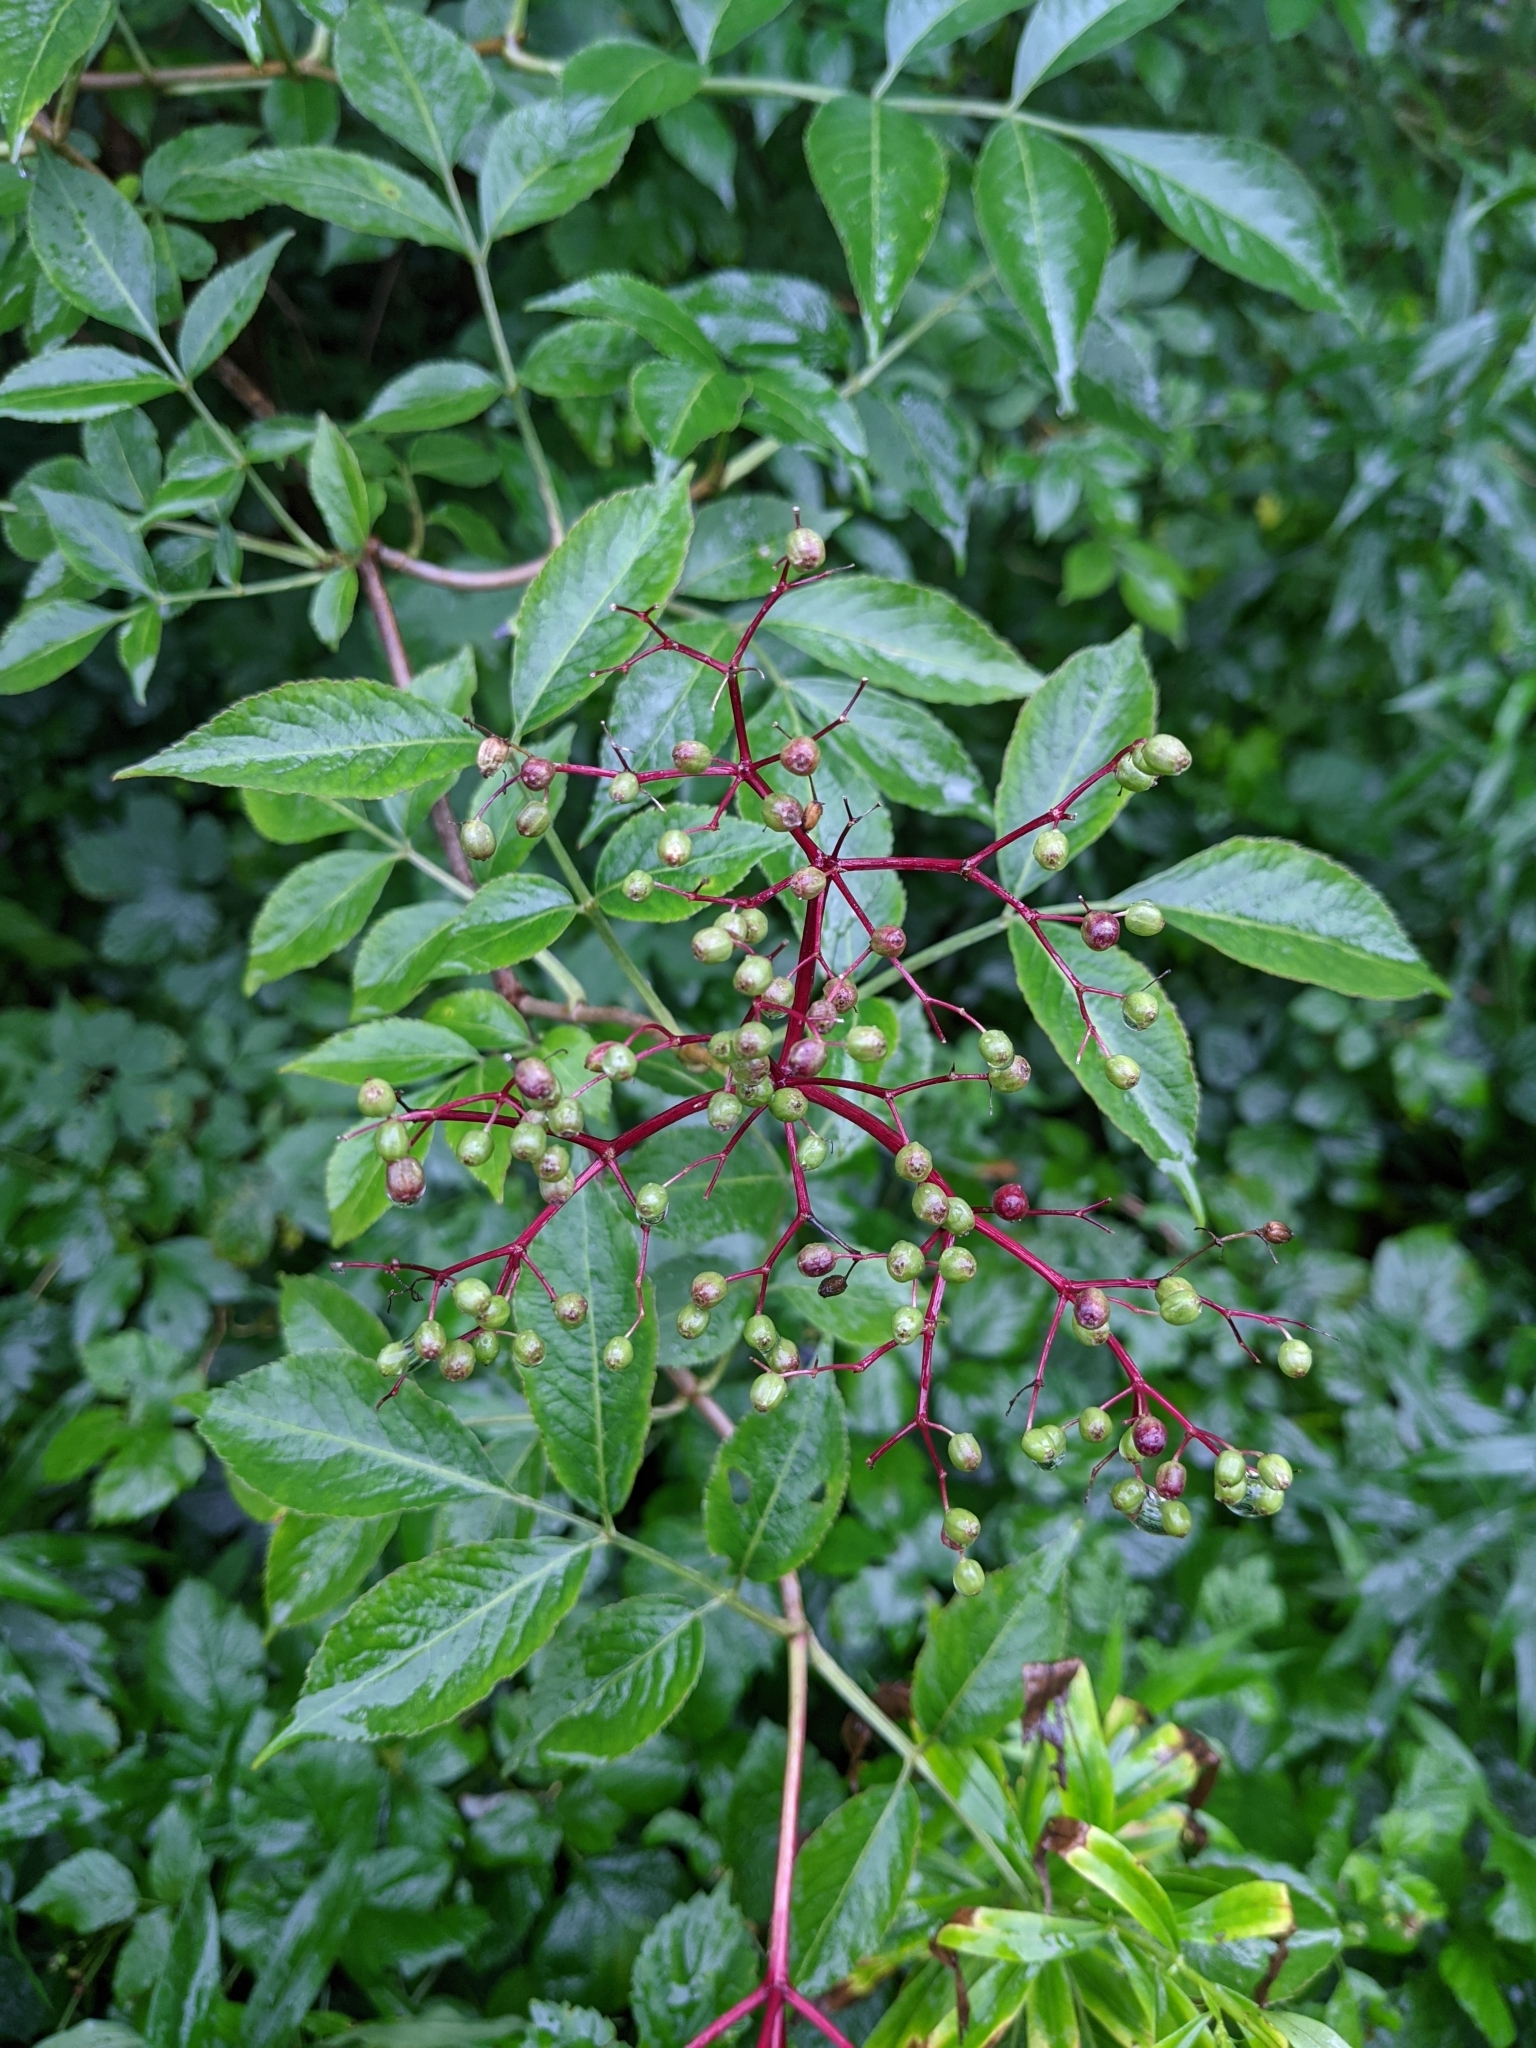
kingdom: Plantae
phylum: Tracheophyta
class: Magnoliopsida
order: Dipsacales
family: Viburnaceae
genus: Sambucus
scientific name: Sambucus nigra
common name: Elder
